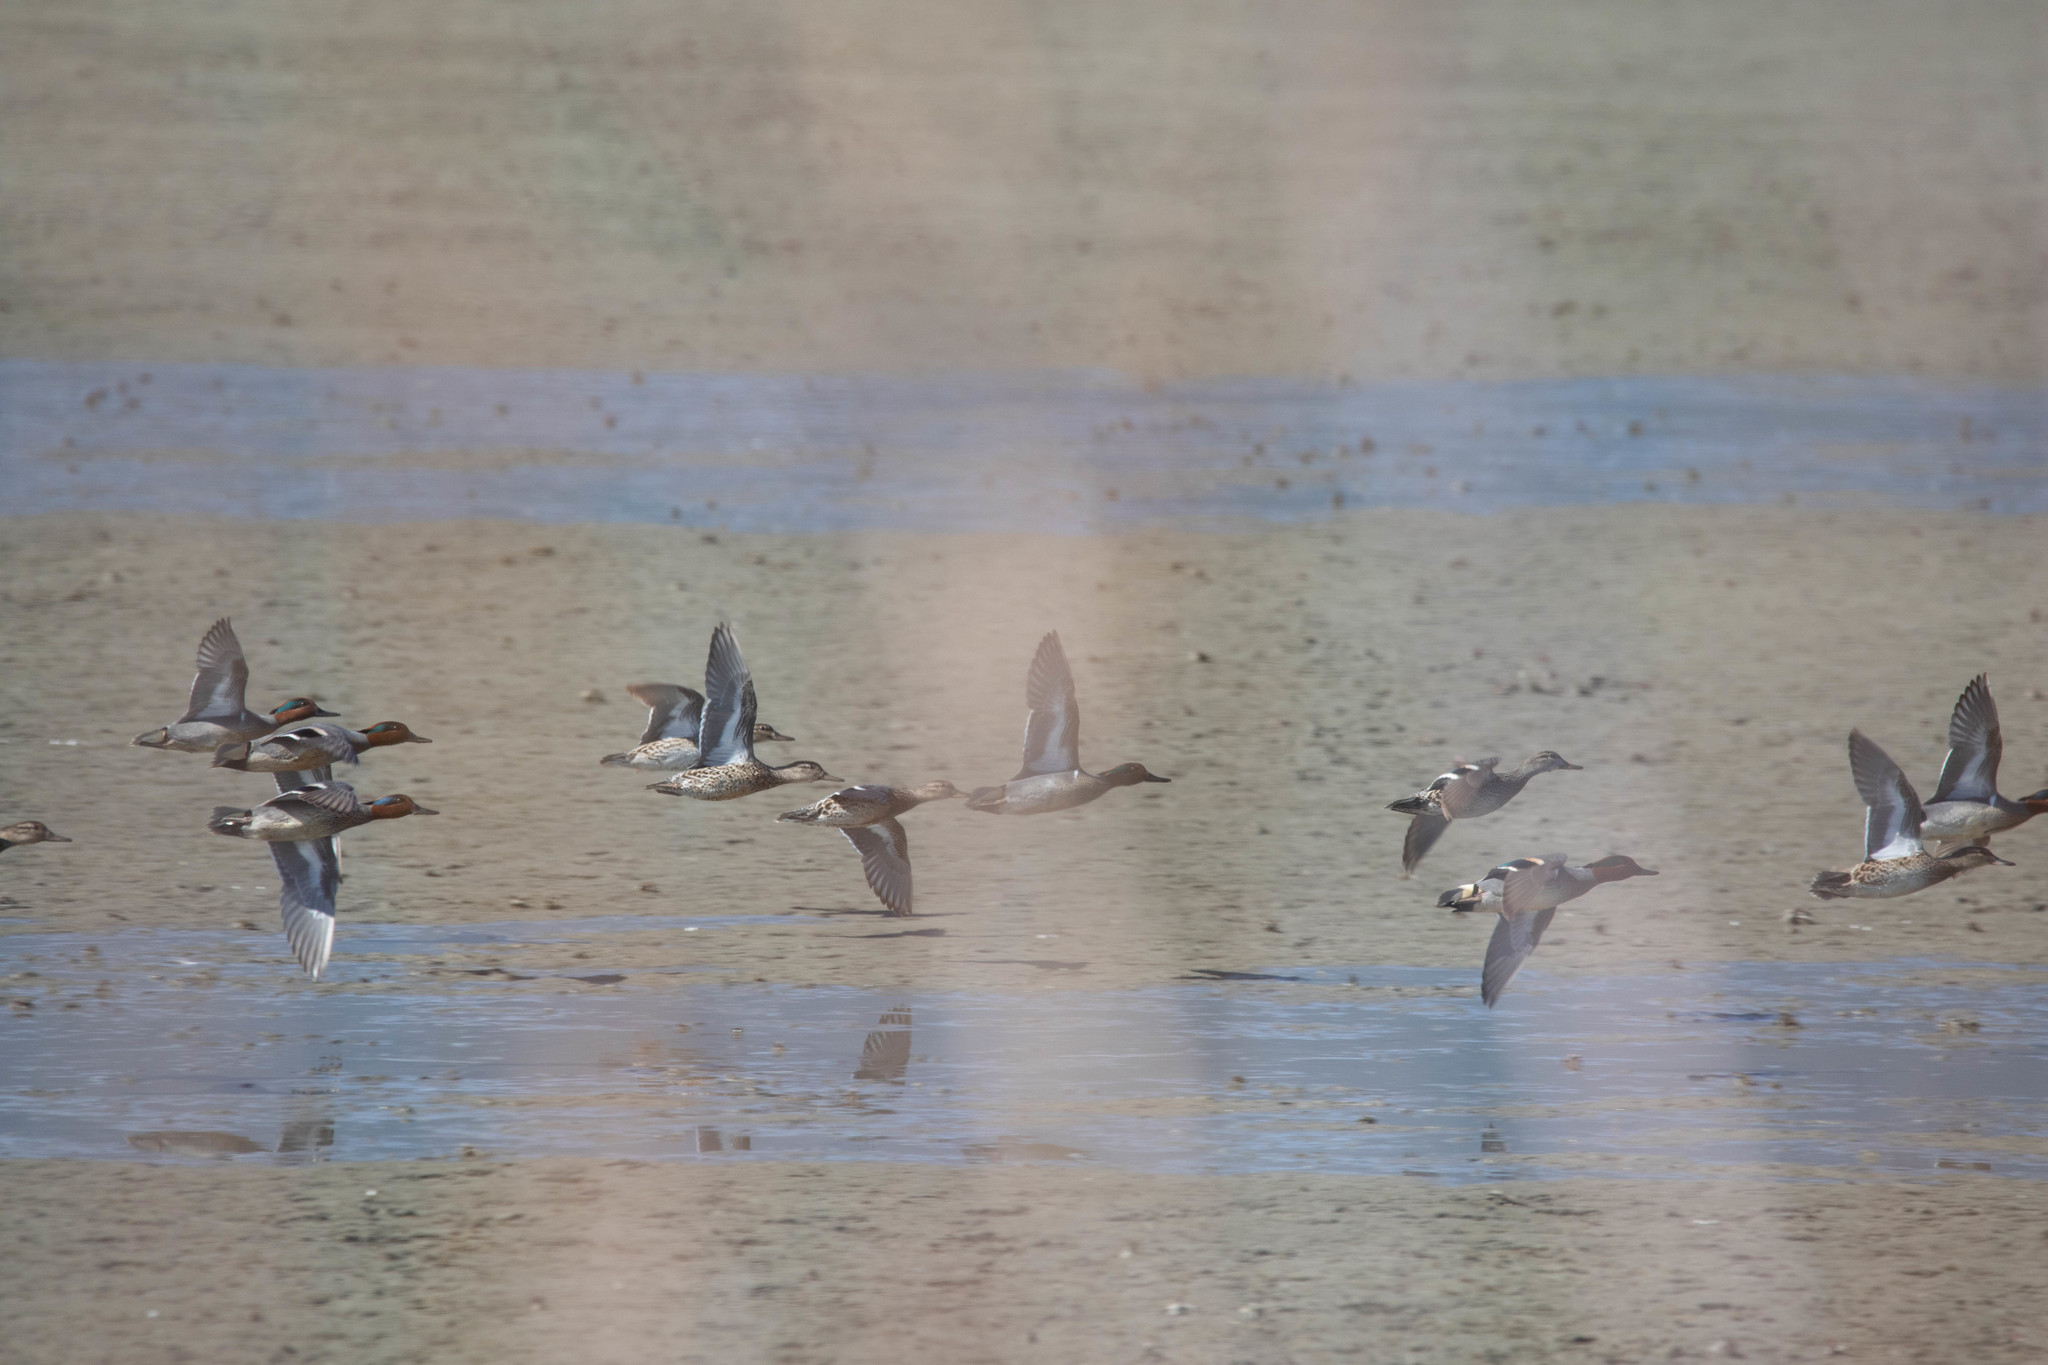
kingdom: Animalia
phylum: Chordata
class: Aves
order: Anseriformes
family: Anatidae
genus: Anas
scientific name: Anas carolinensis
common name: Green-winged teal
